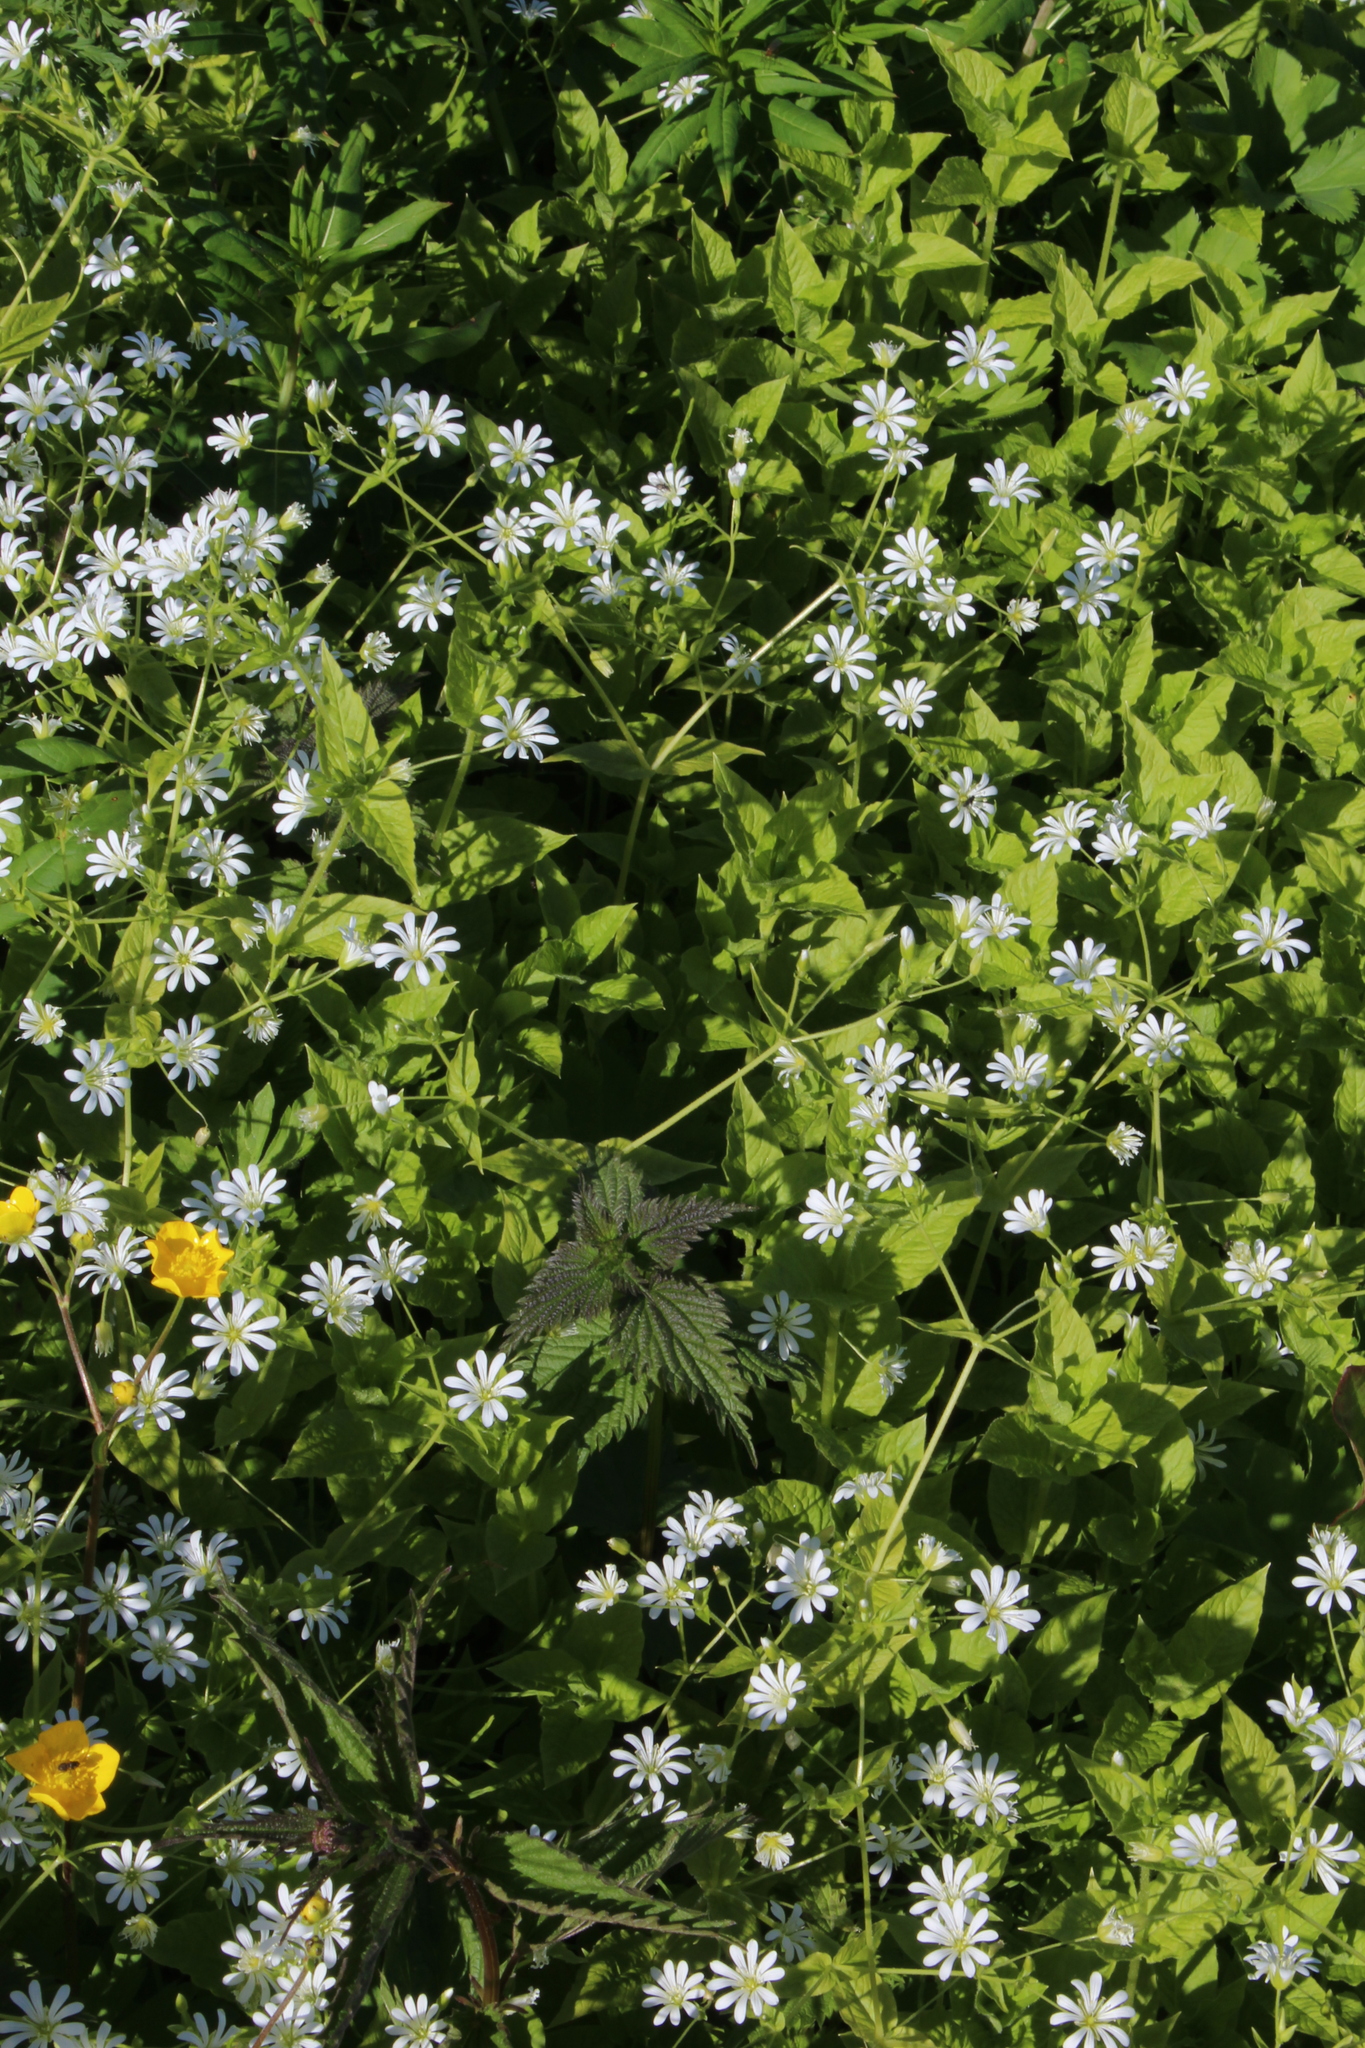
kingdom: Plantae
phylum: Tracheophyta
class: Magnoliopsida
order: Caryophyllales
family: Caryophyllaceae
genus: Stellaria
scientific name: Stellaria nemorum
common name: Wood stitchwort
